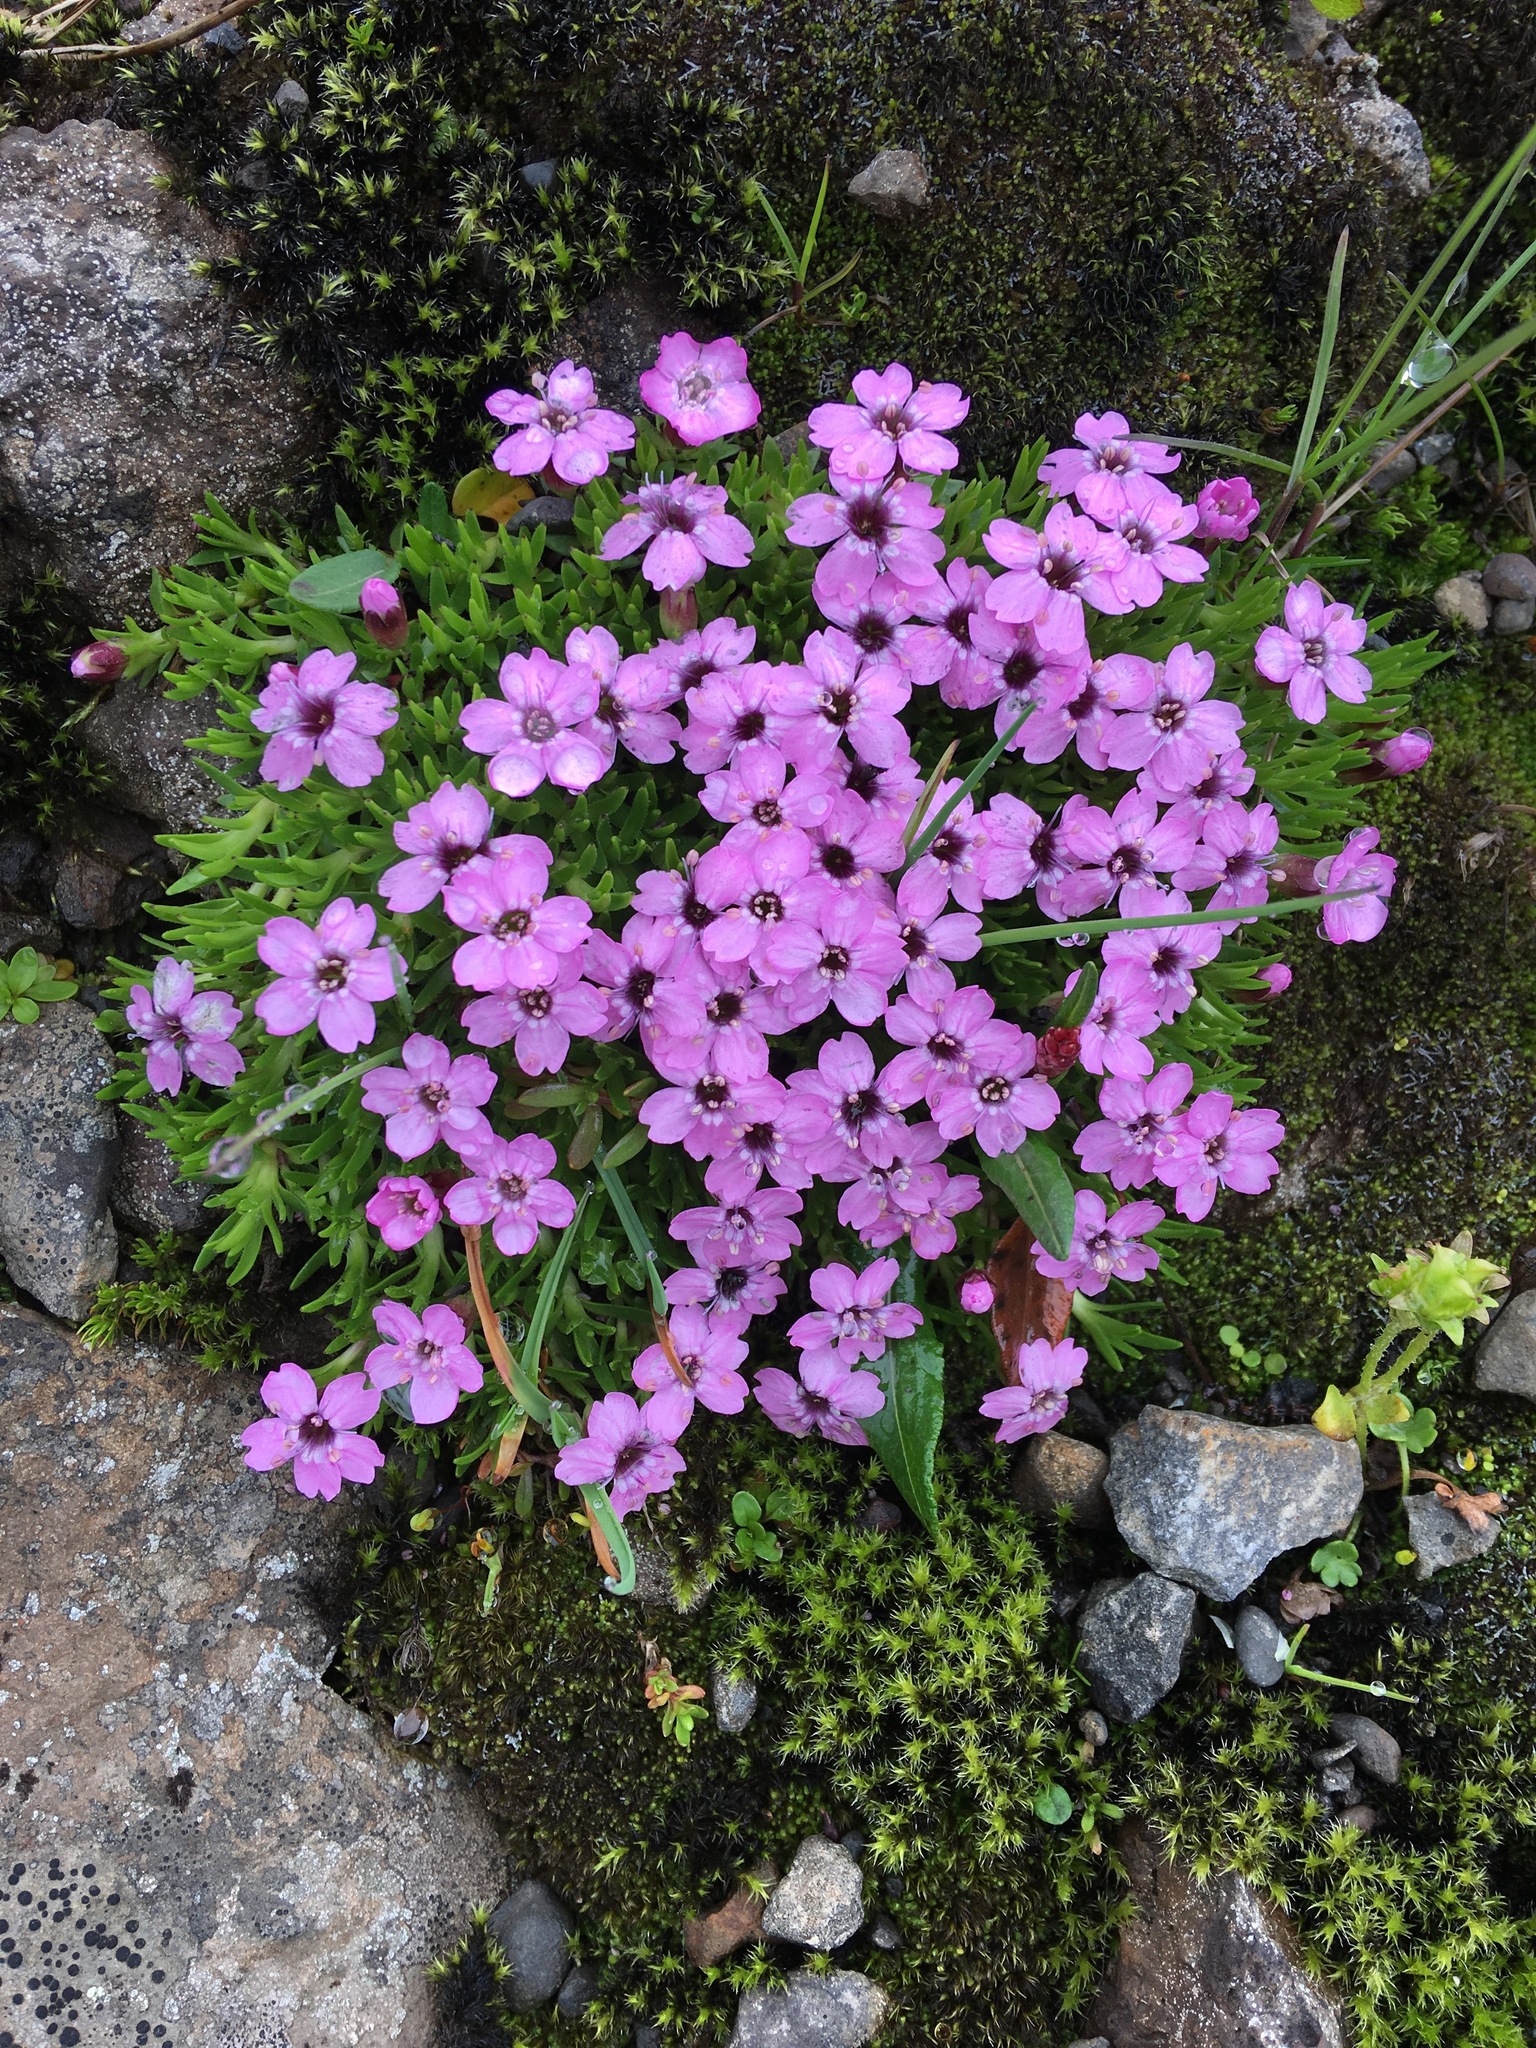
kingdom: Plantae
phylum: Tracheophyta
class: Magnoliopsida
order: Caryophyllales
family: Caryophyllaceae
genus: Silene
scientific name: Silene acaulis
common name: Moss campion
